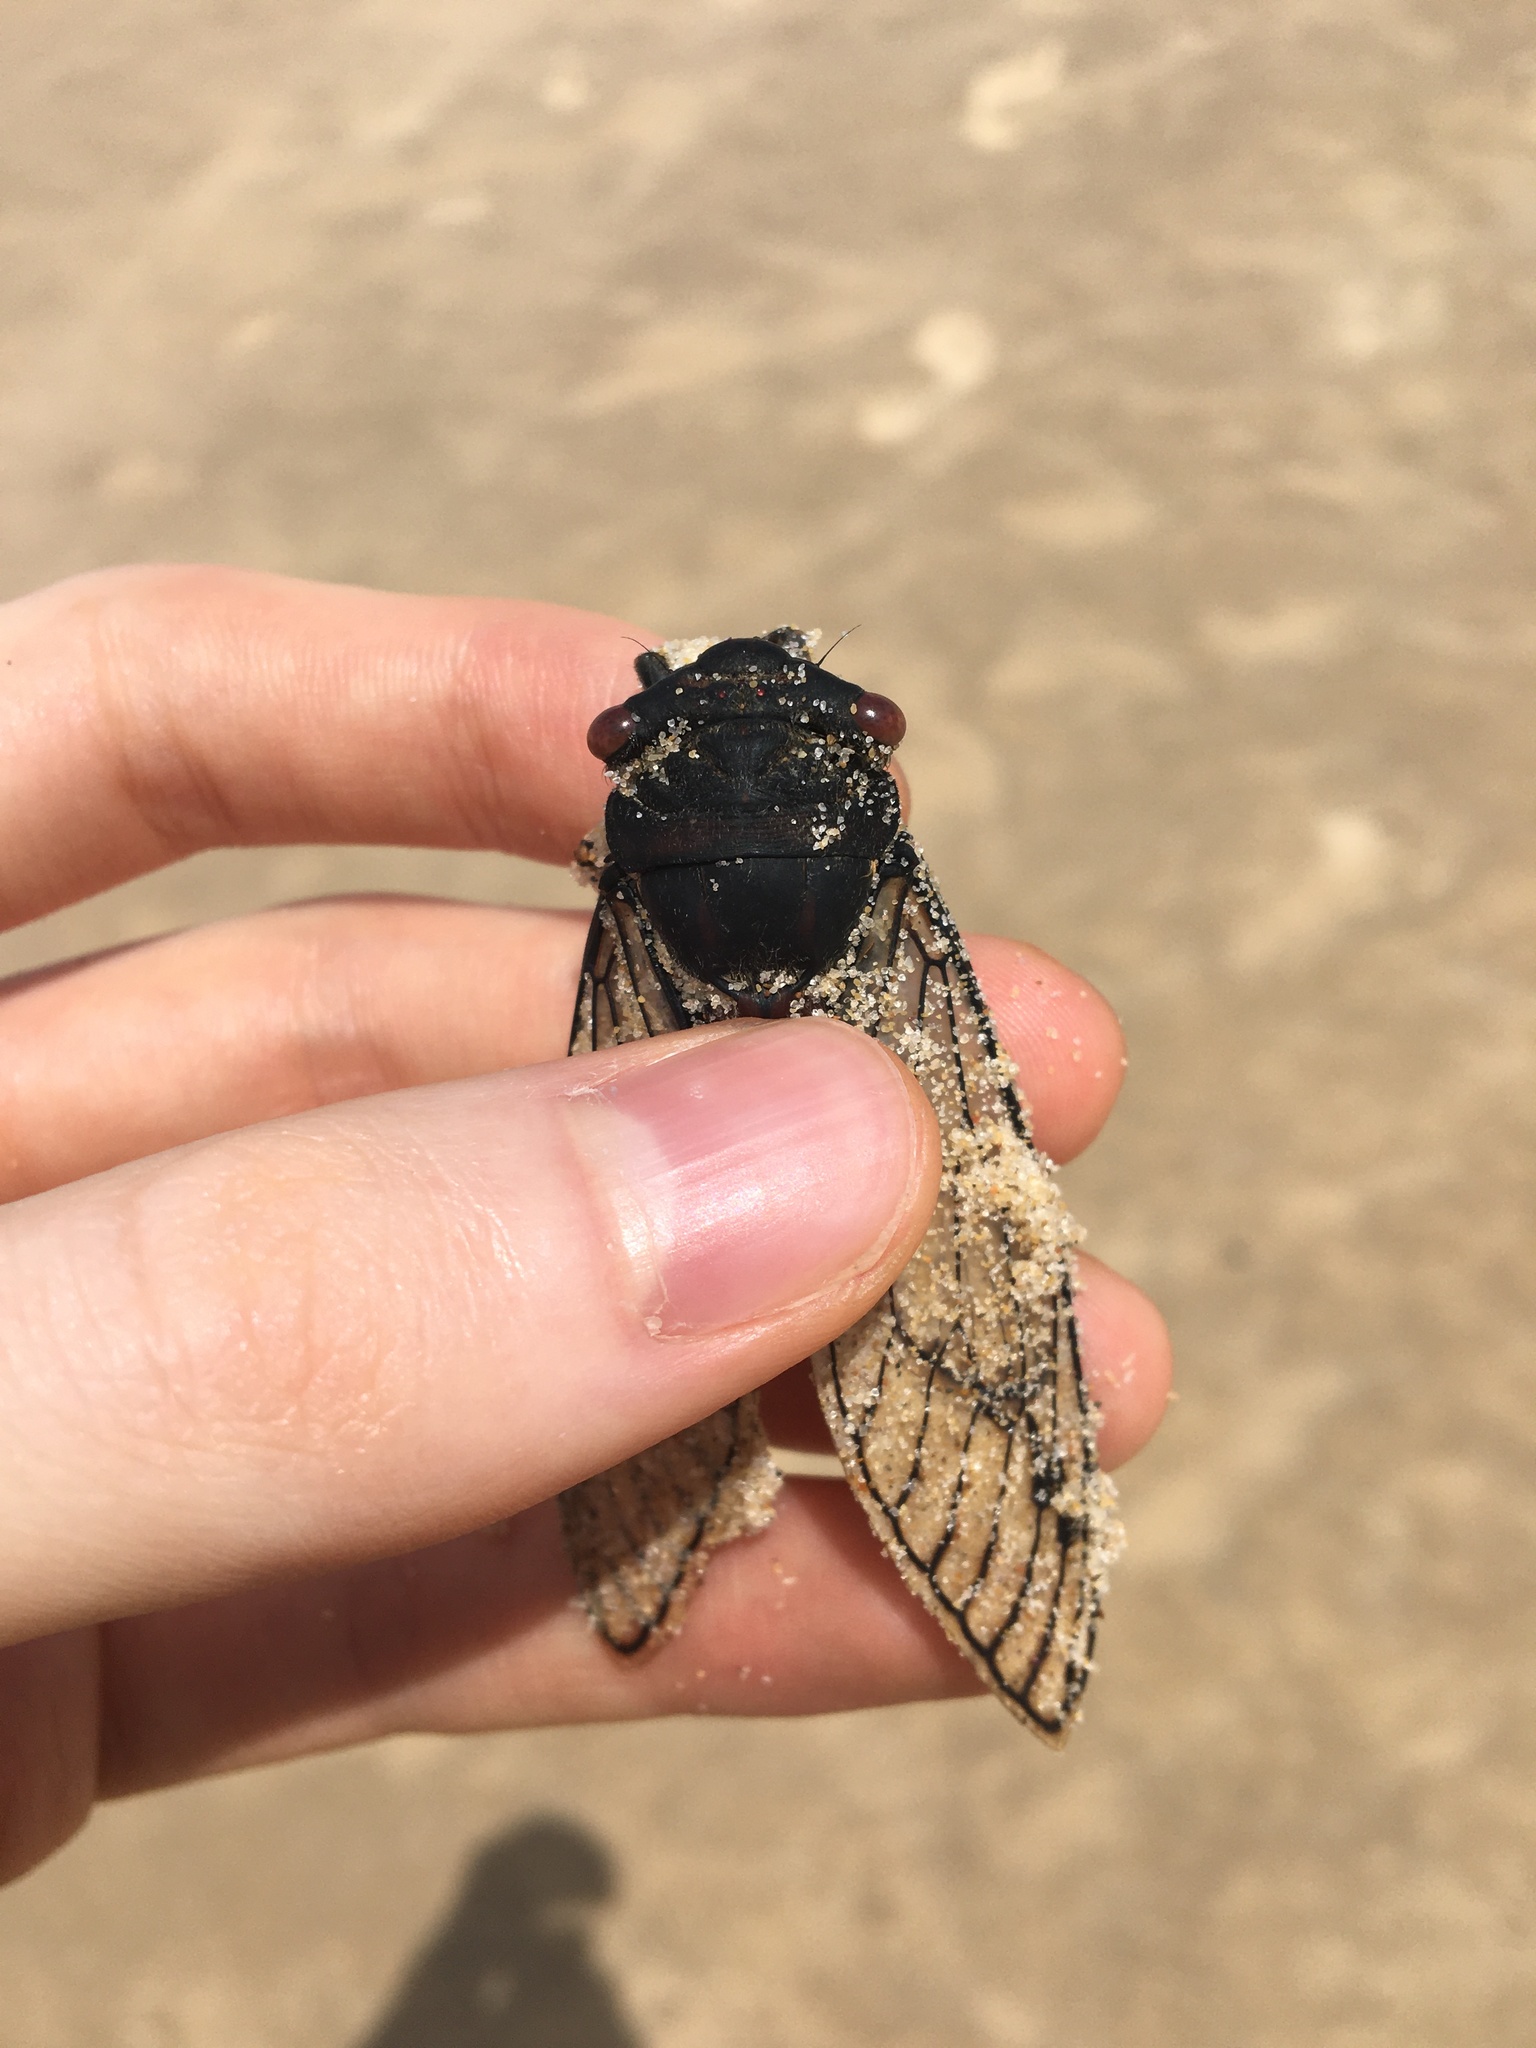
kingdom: Animalia
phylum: Arthropoda
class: Insecta
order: Hemiptera
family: Cicadidae
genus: Psaltoda
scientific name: Psaltoda moerens
